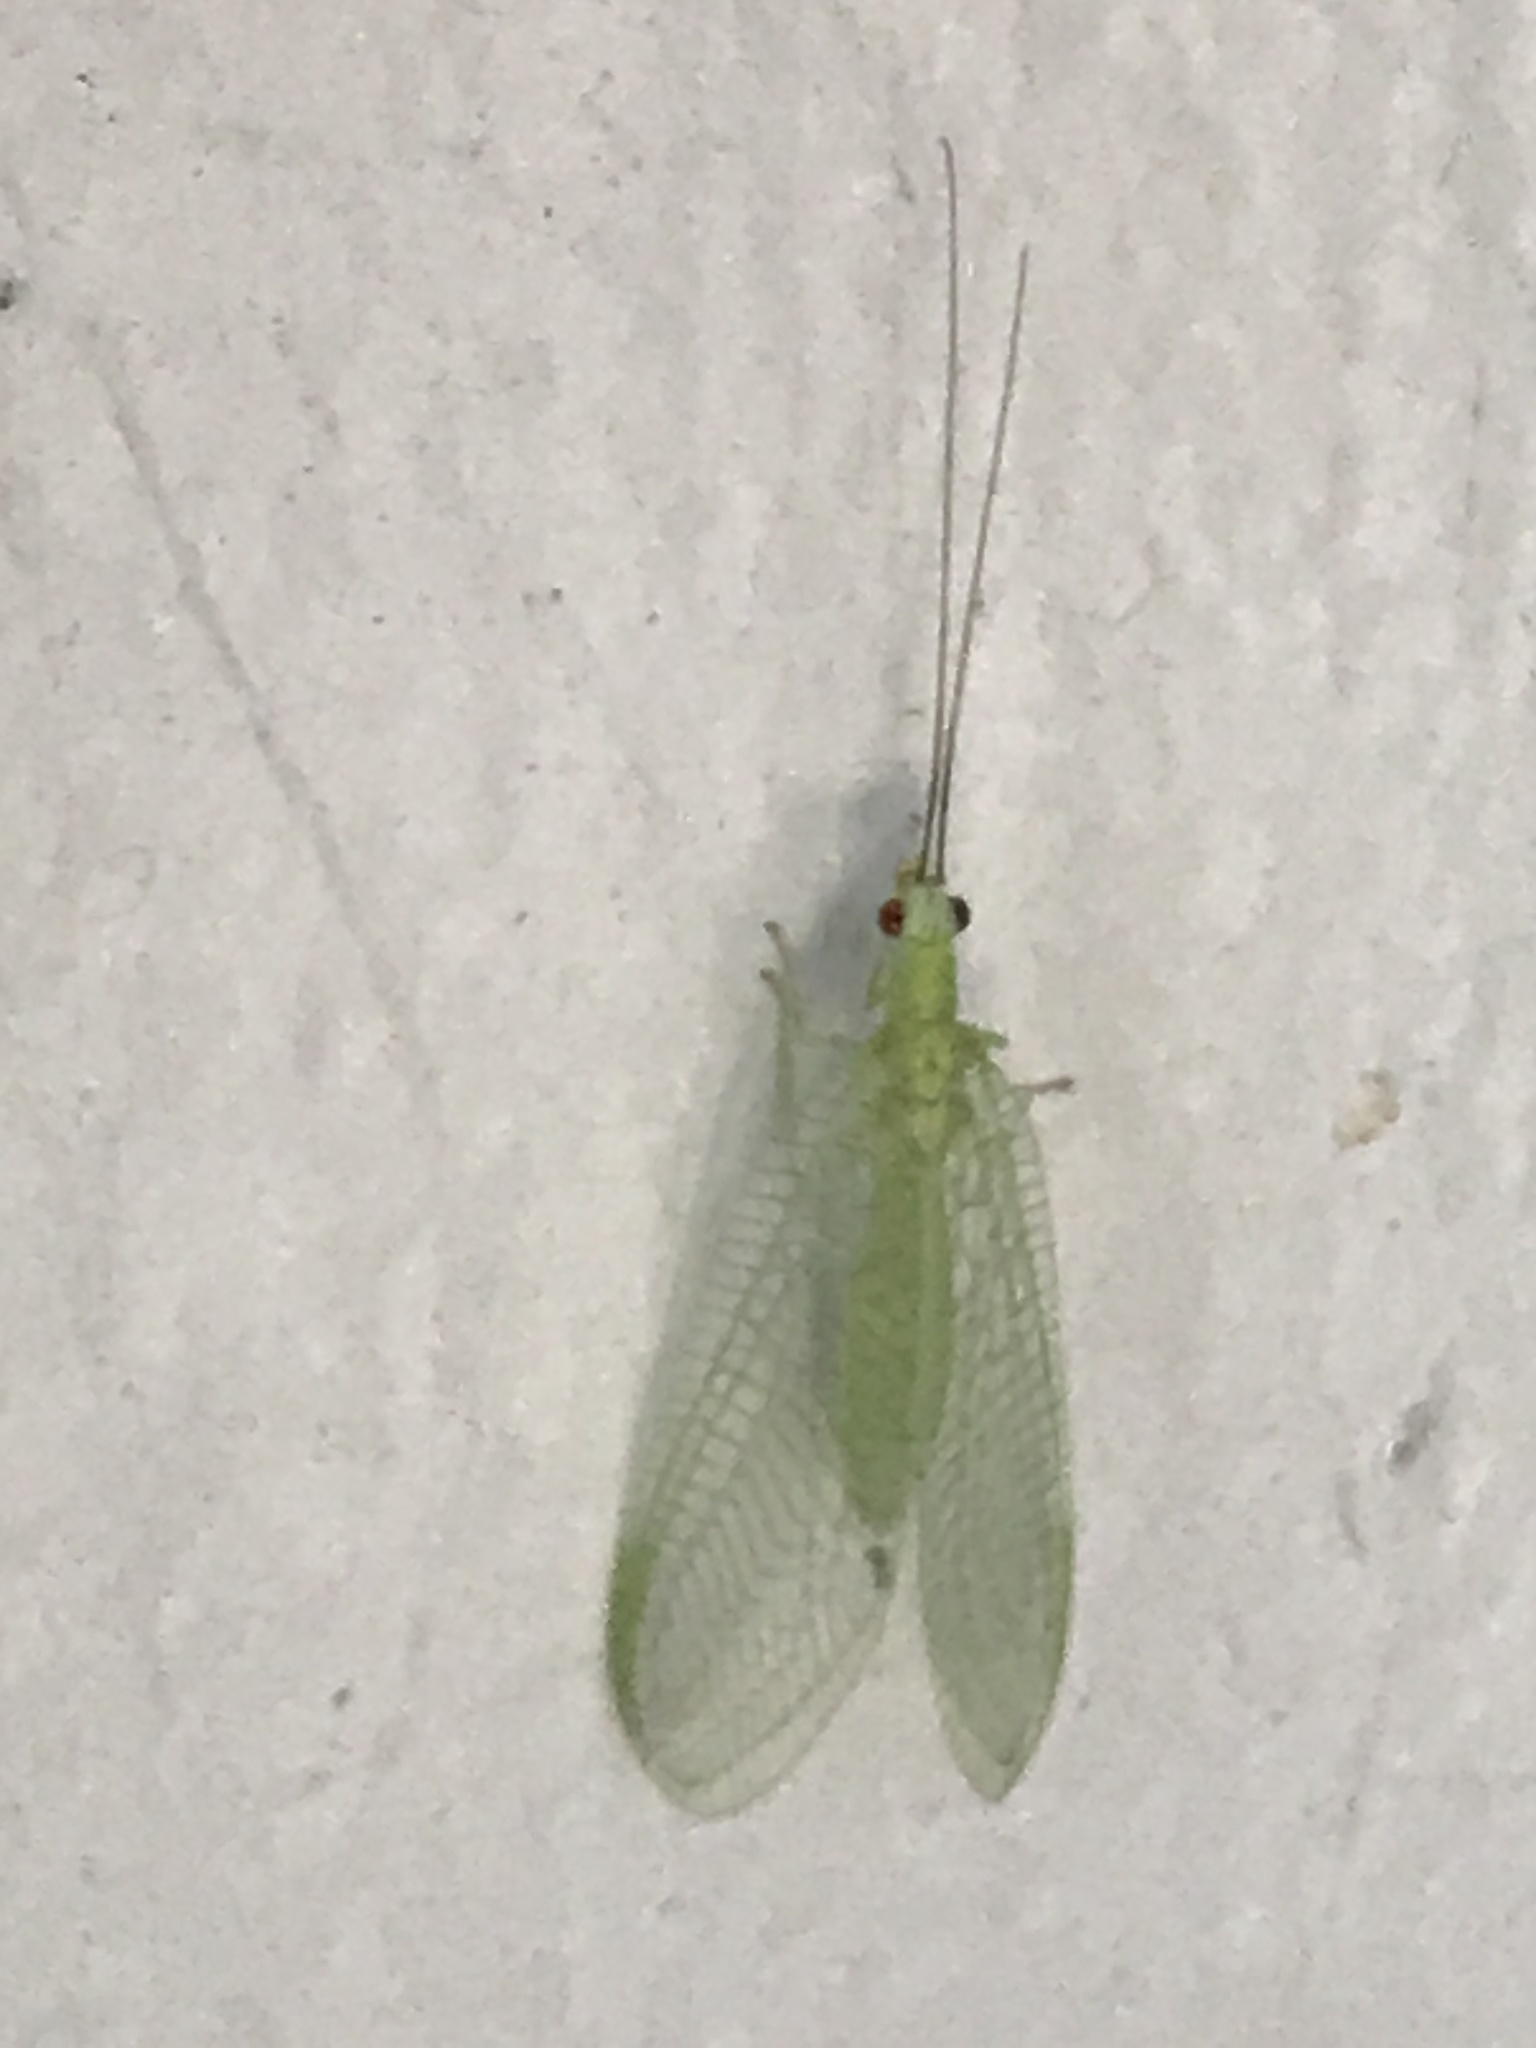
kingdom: Animalia
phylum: Arthropoda
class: Insecta
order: Neuroptera
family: Chrysopidae
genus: Chrysopa
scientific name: Chrysopa nigricornis
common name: Black-horned green lacewing
